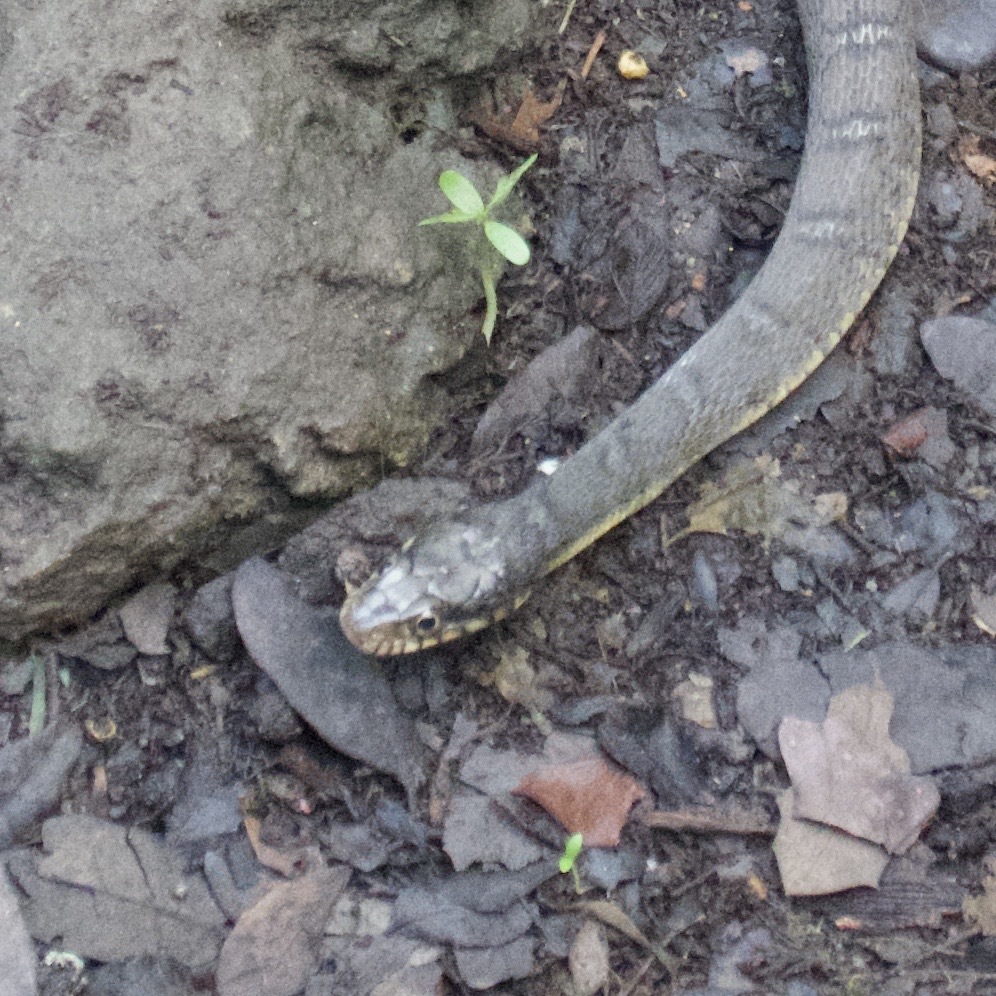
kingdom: Animalia
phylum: Chordata
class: Squamata
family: Colubridae
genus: Nerodia
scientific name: Nerodia erythrogaster
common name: Plainbelly water snake
